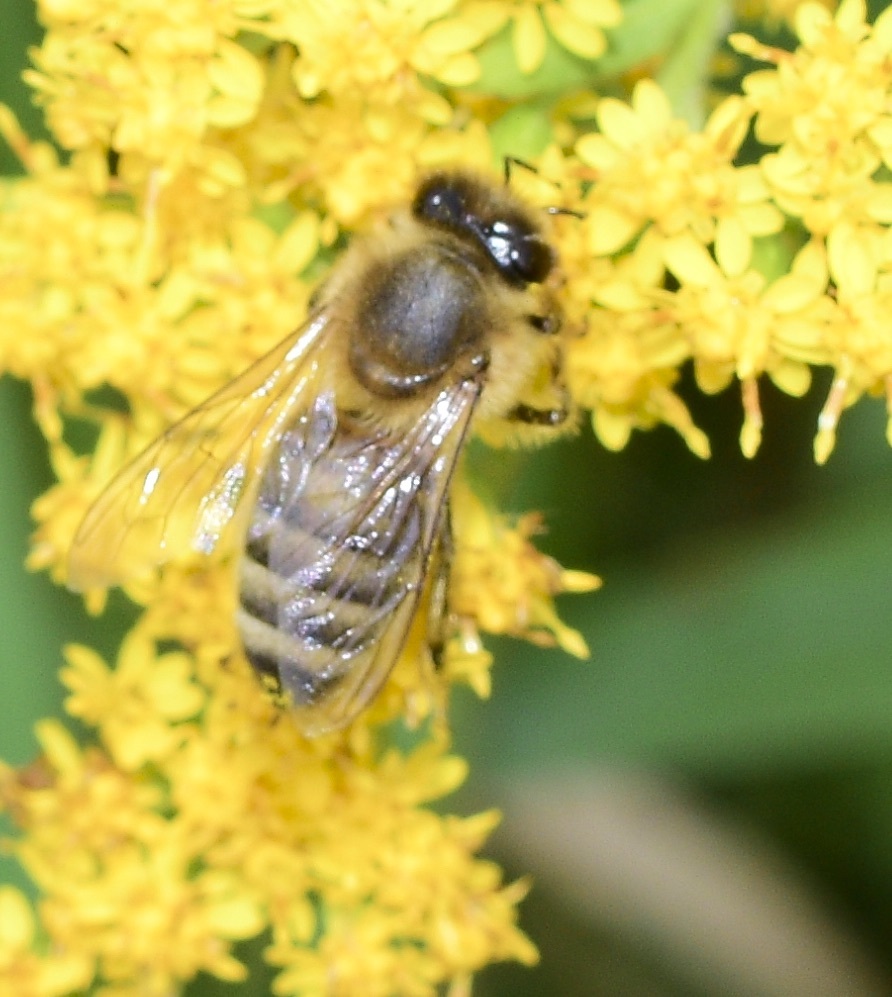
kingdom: Animalia
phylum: Arthropoda
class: Insecta
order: Hymenoptera
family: Apidae
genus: Apis
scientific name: Apis mellifera
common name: Honey bee
